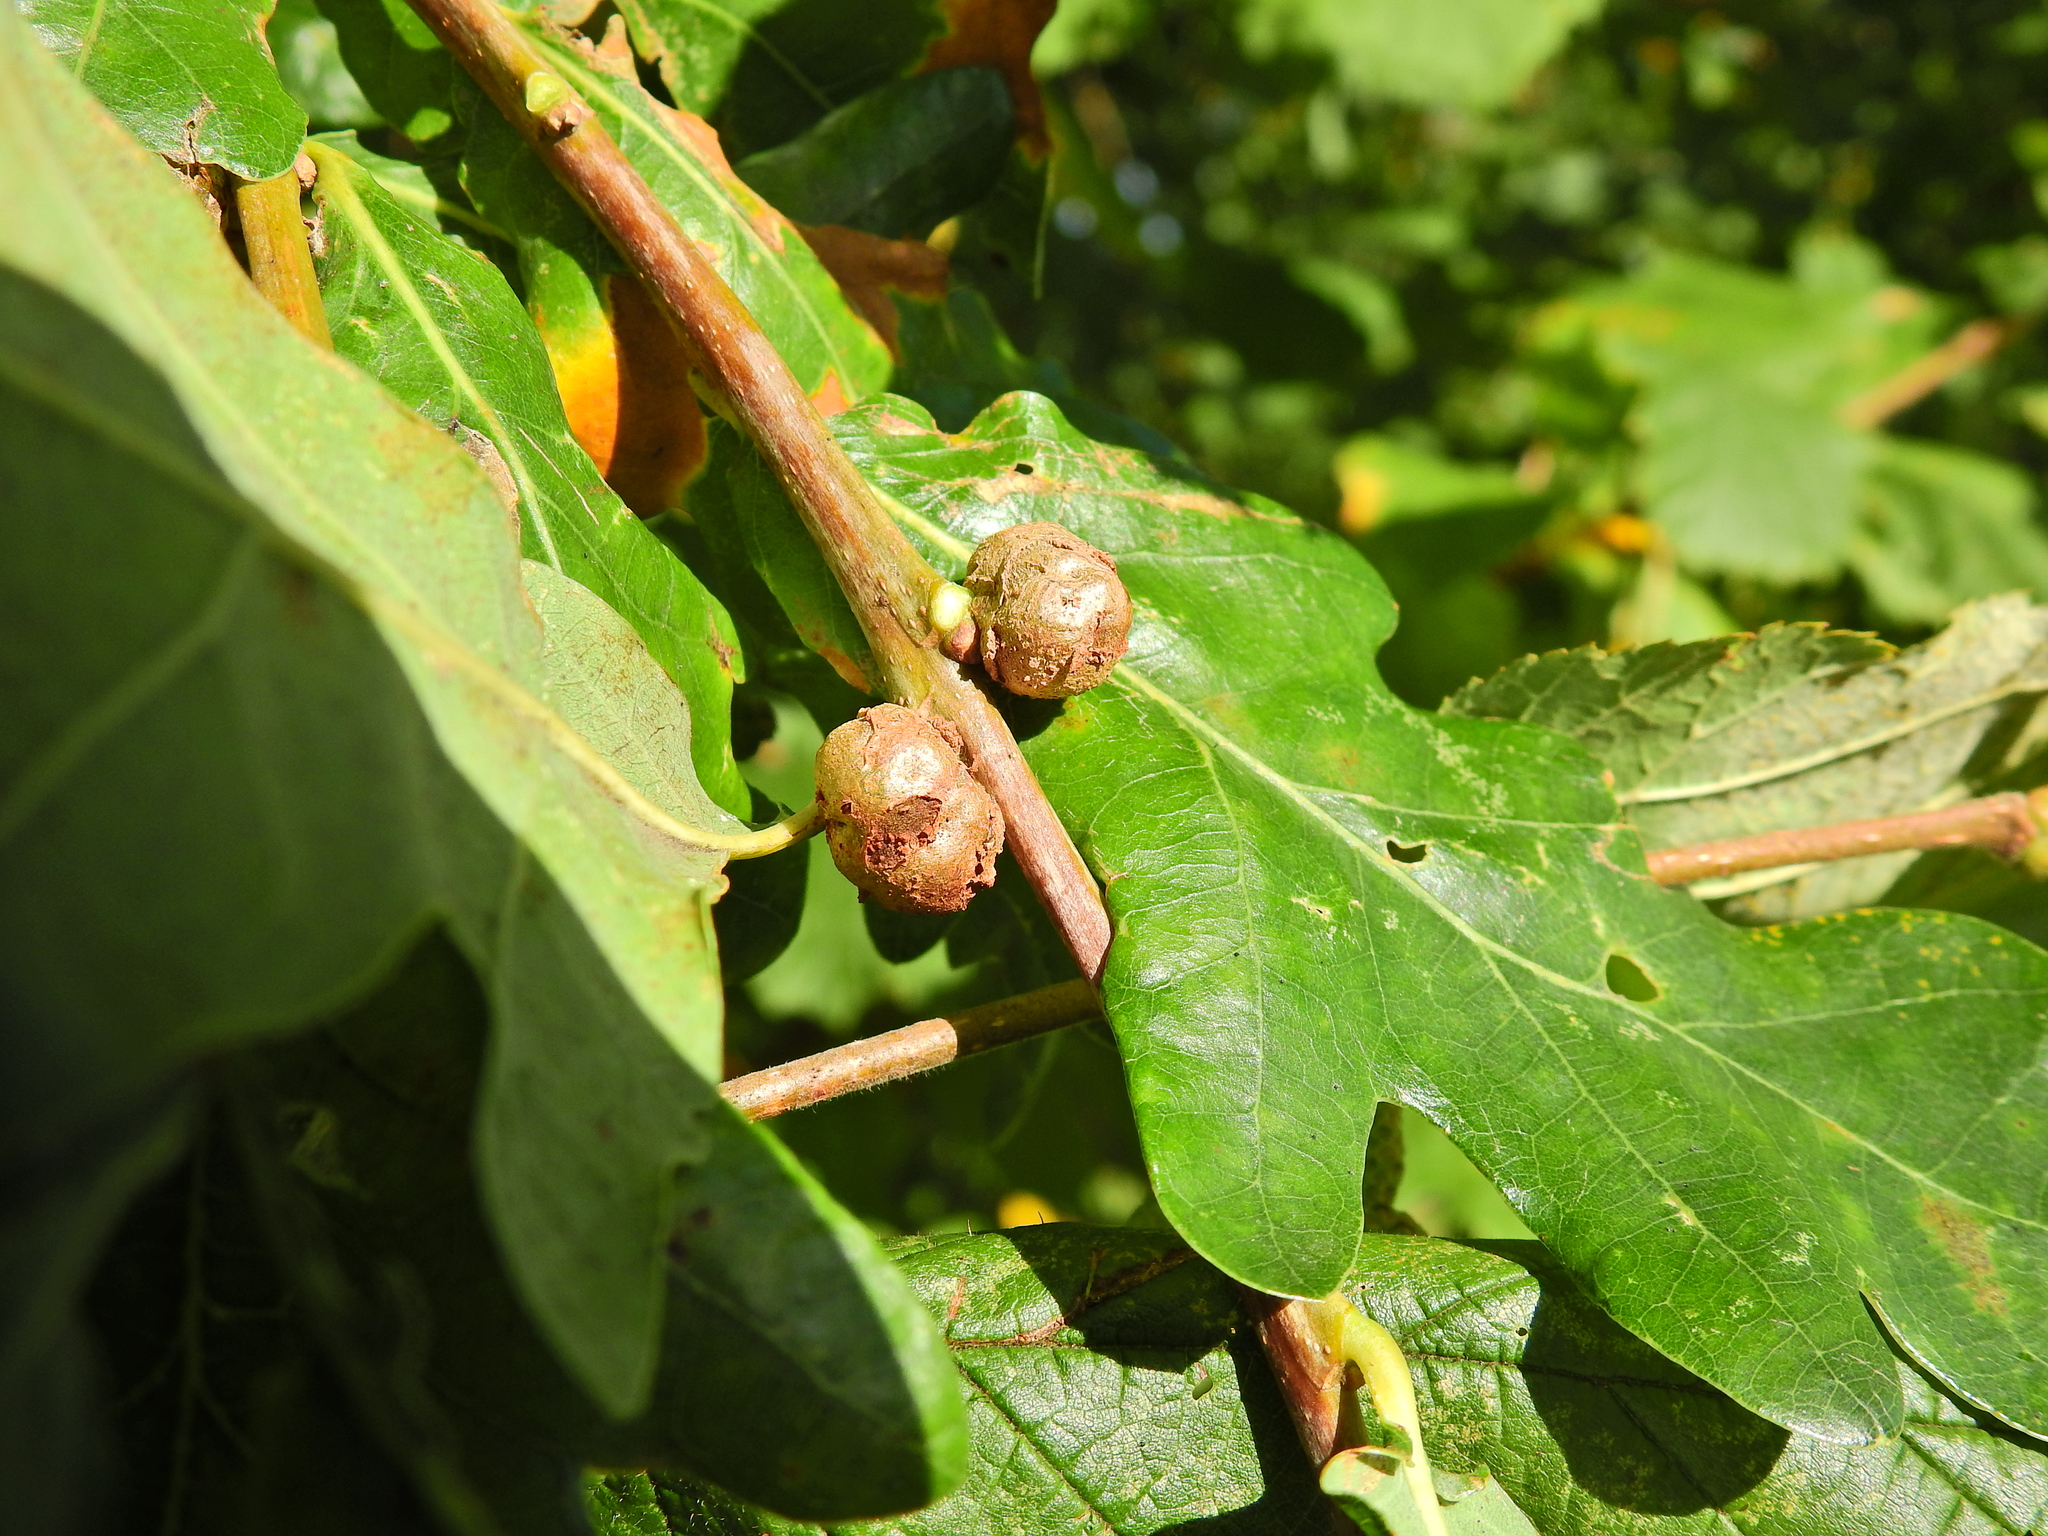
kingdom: Animalia
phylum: Arthropoda
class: Insecta
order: Hymenoptera
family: Cynipidae
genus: Andricus
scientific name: Andricus lignicolus
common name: Cola-nut gall
